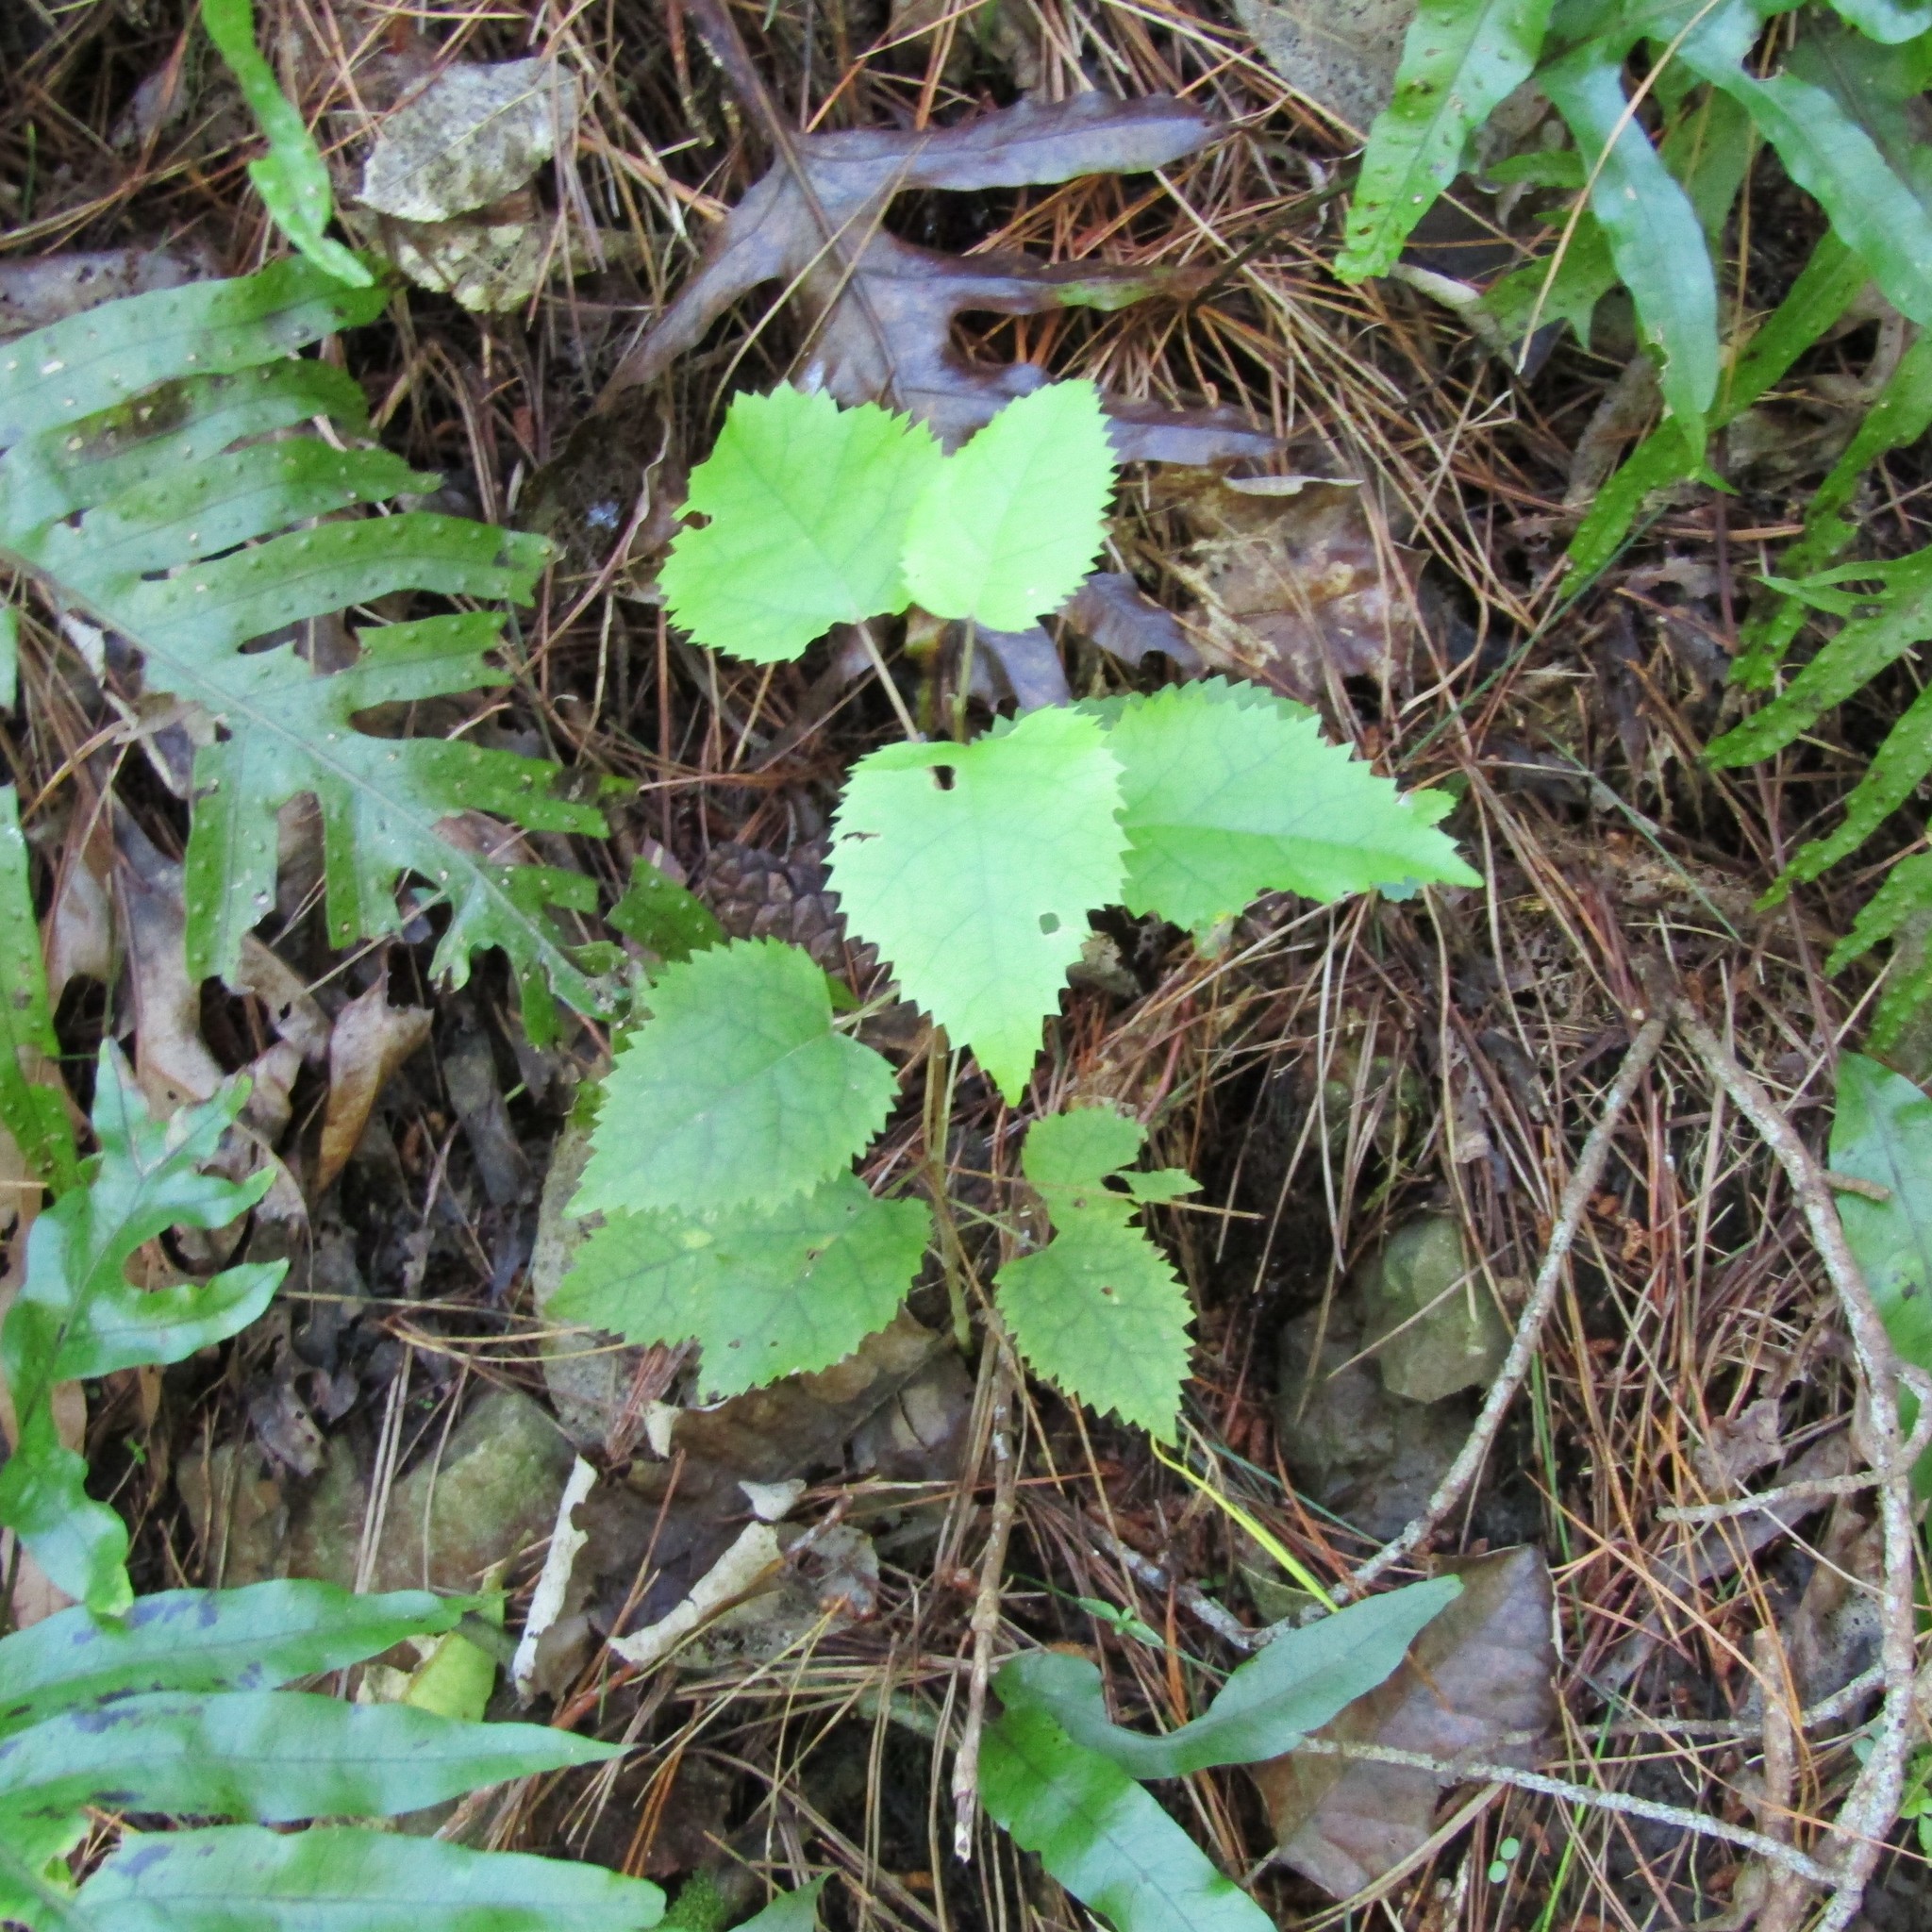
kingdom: Plantae
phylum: Tracheophyta
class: Magnoliopsida
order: Malvales
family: Malvaceae
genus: Hoheria
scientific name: Hoheria populnea
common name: Lacebark
